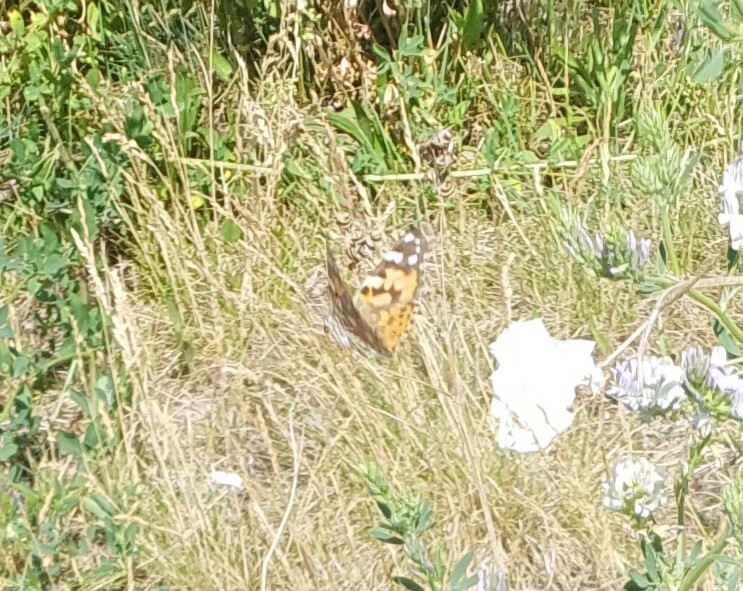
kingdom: Animalia
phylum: Arthropoda
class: Insecta
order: Lepidoptera
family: Nymphalidae
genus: Vanessa
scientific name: Vanessa cardui
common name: Painted lady
